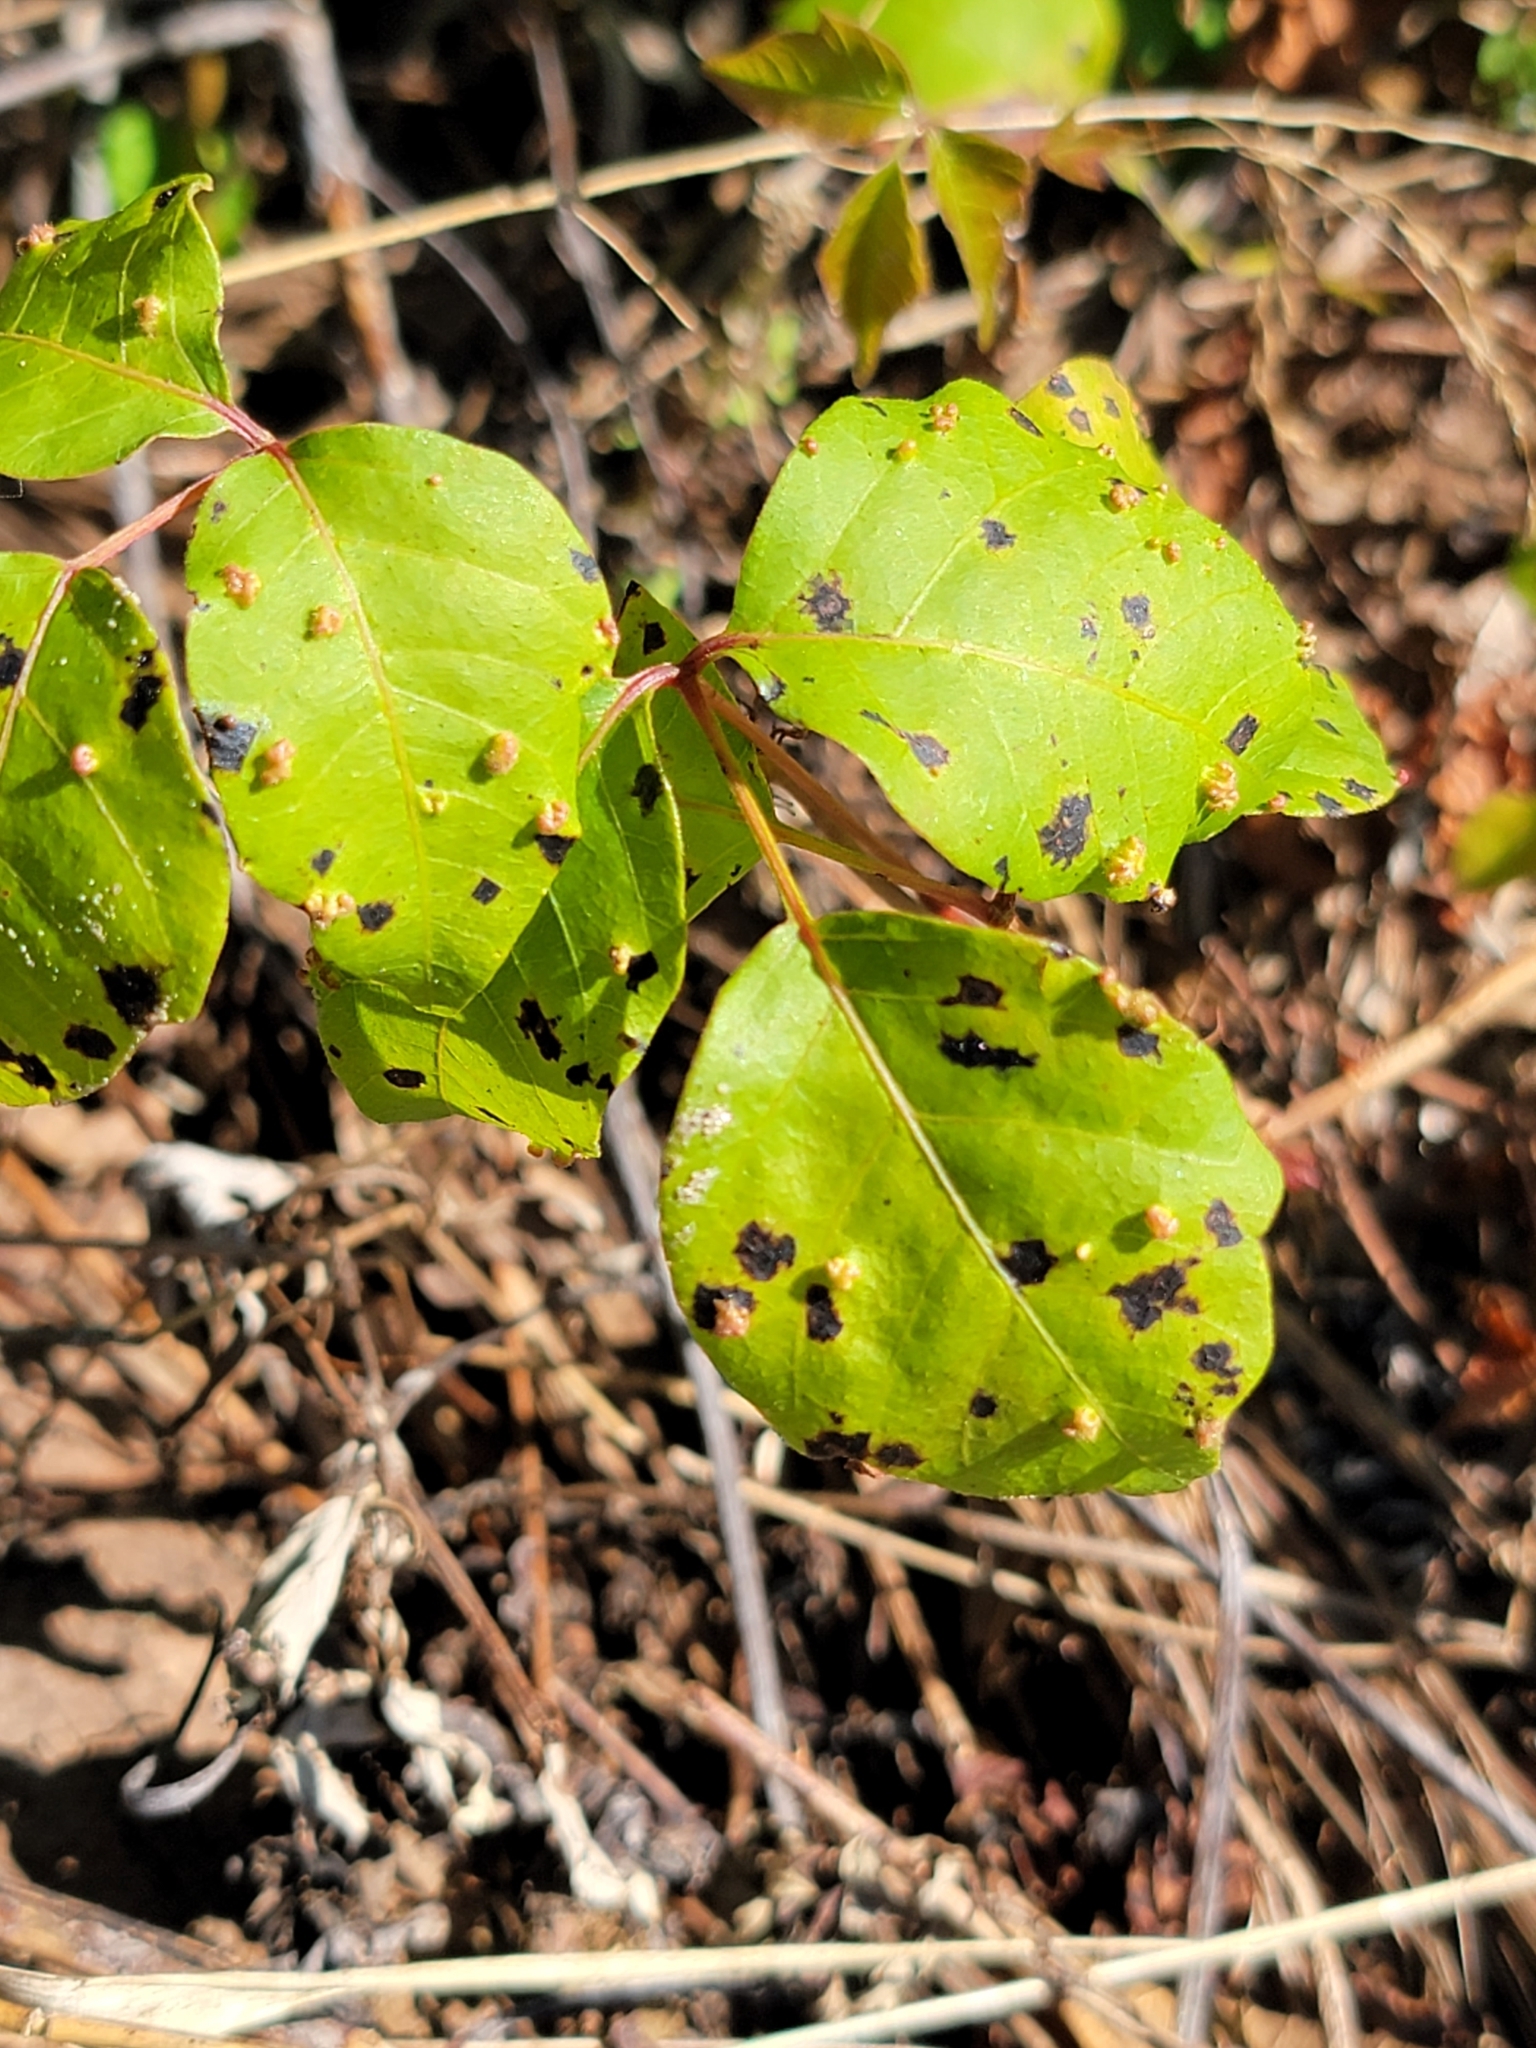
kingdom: Animalia
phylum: Arthropoda
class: Arachnida
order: Trombidiformes
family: Eriophyidae
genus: Aculops
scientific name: Aculops
